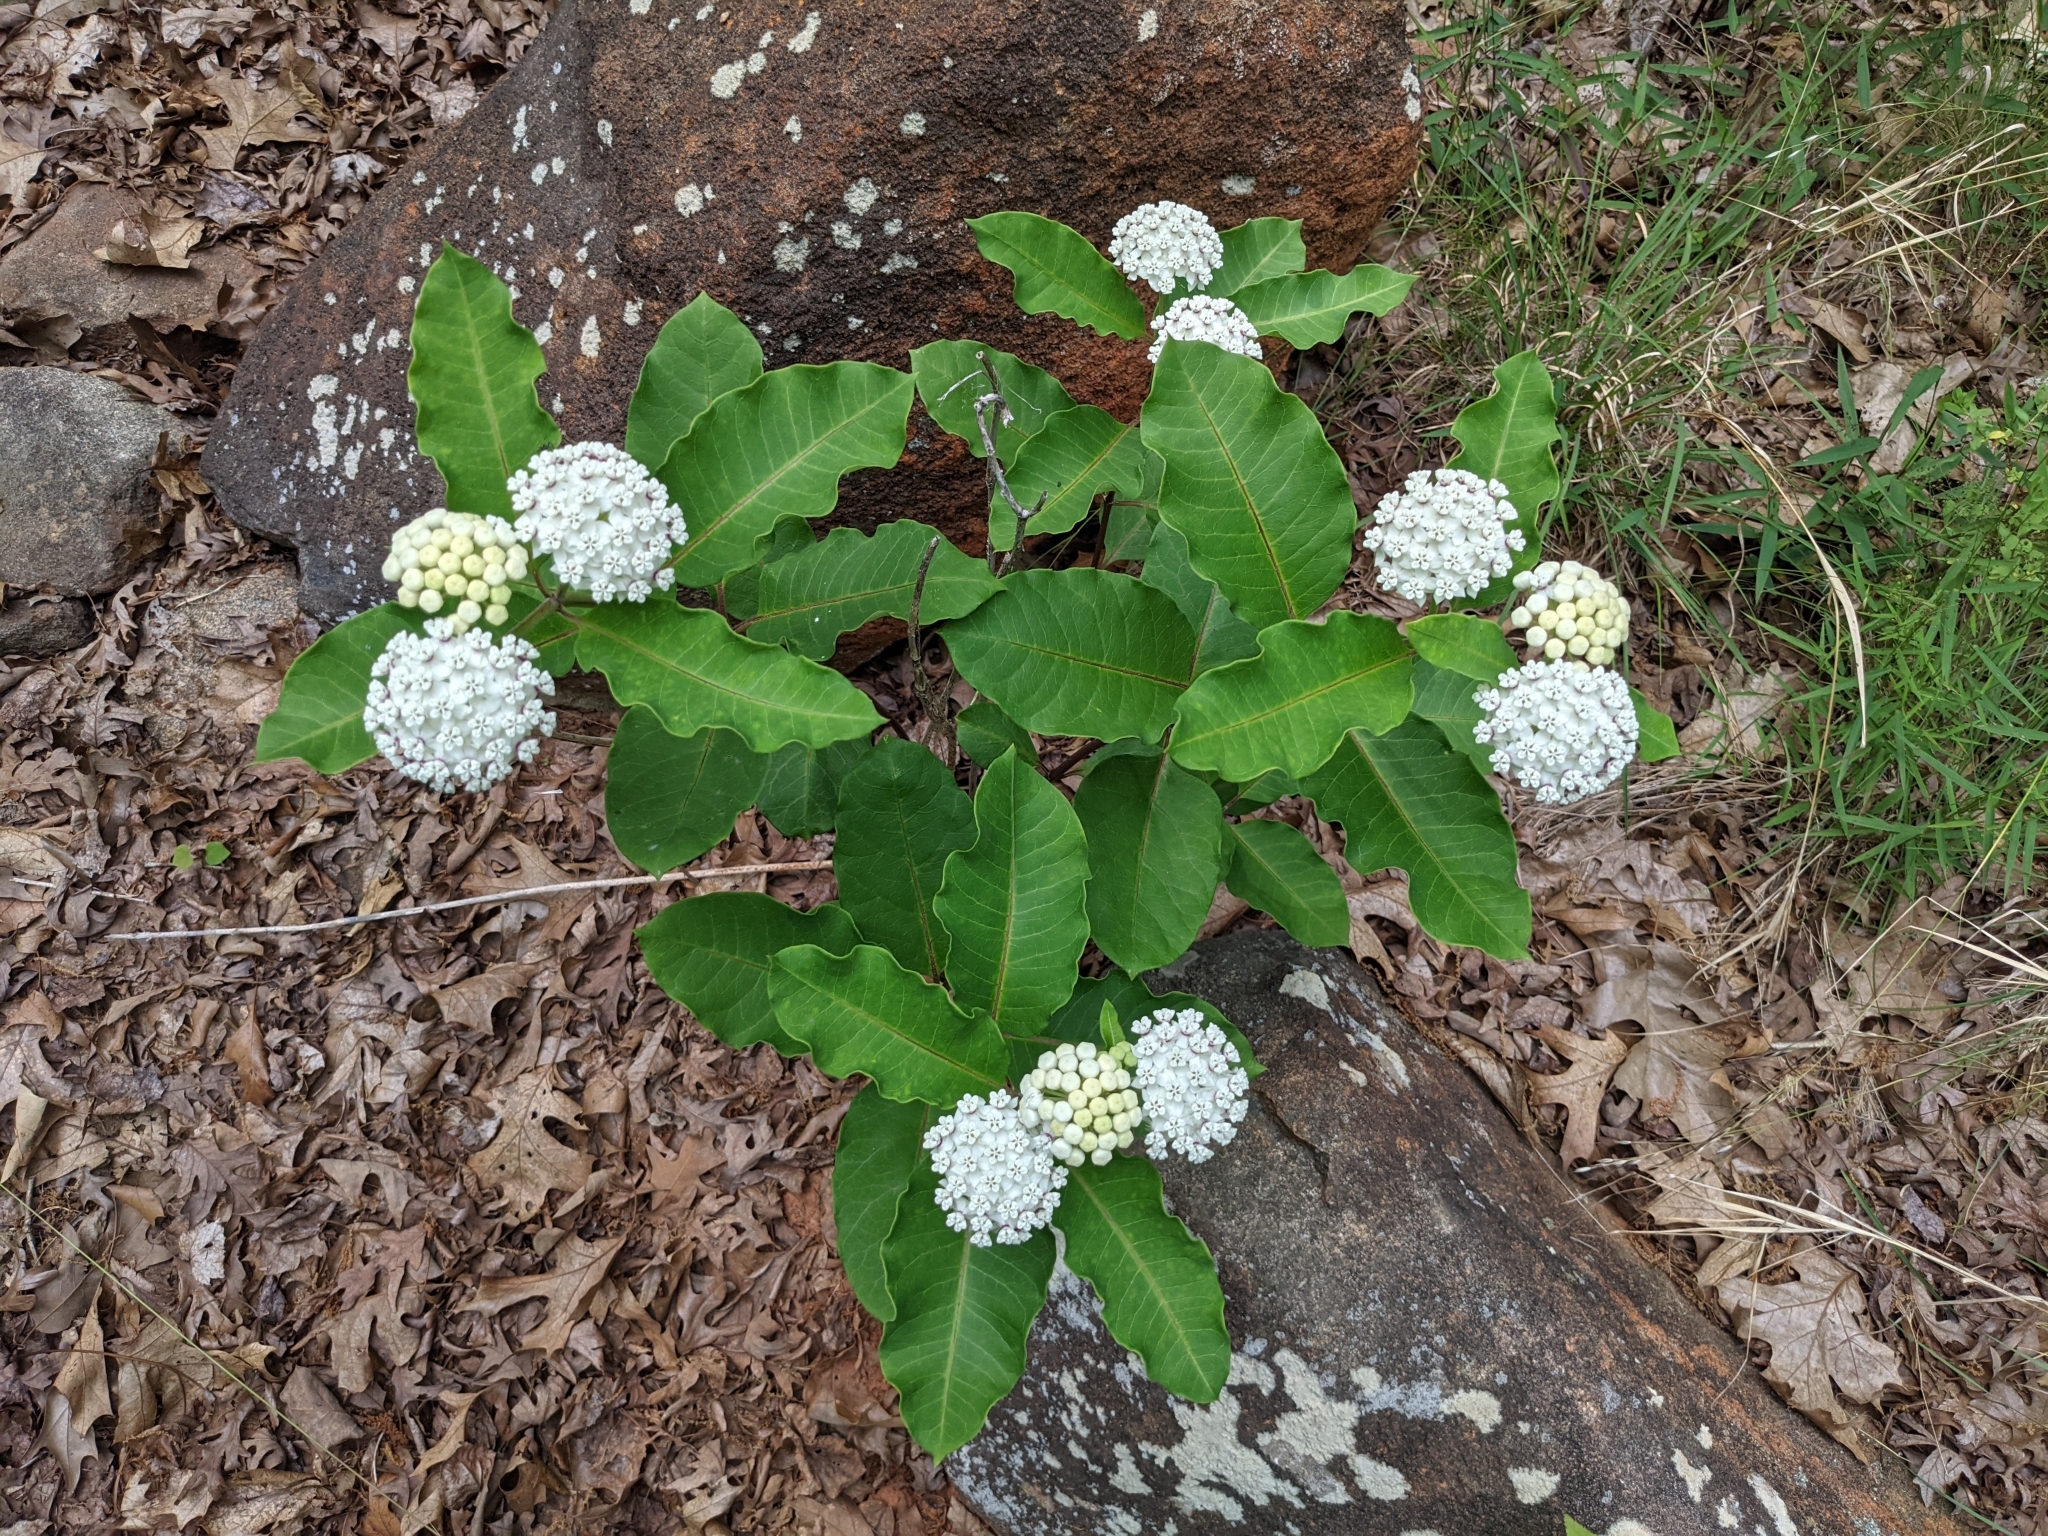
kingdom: Plantae
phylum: Tracheophyta
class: Magnoliopsida
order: Gentianales
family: Apocynaceae
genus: Asclepias
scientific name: Asclepias variegata
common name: Variegated milkweed
